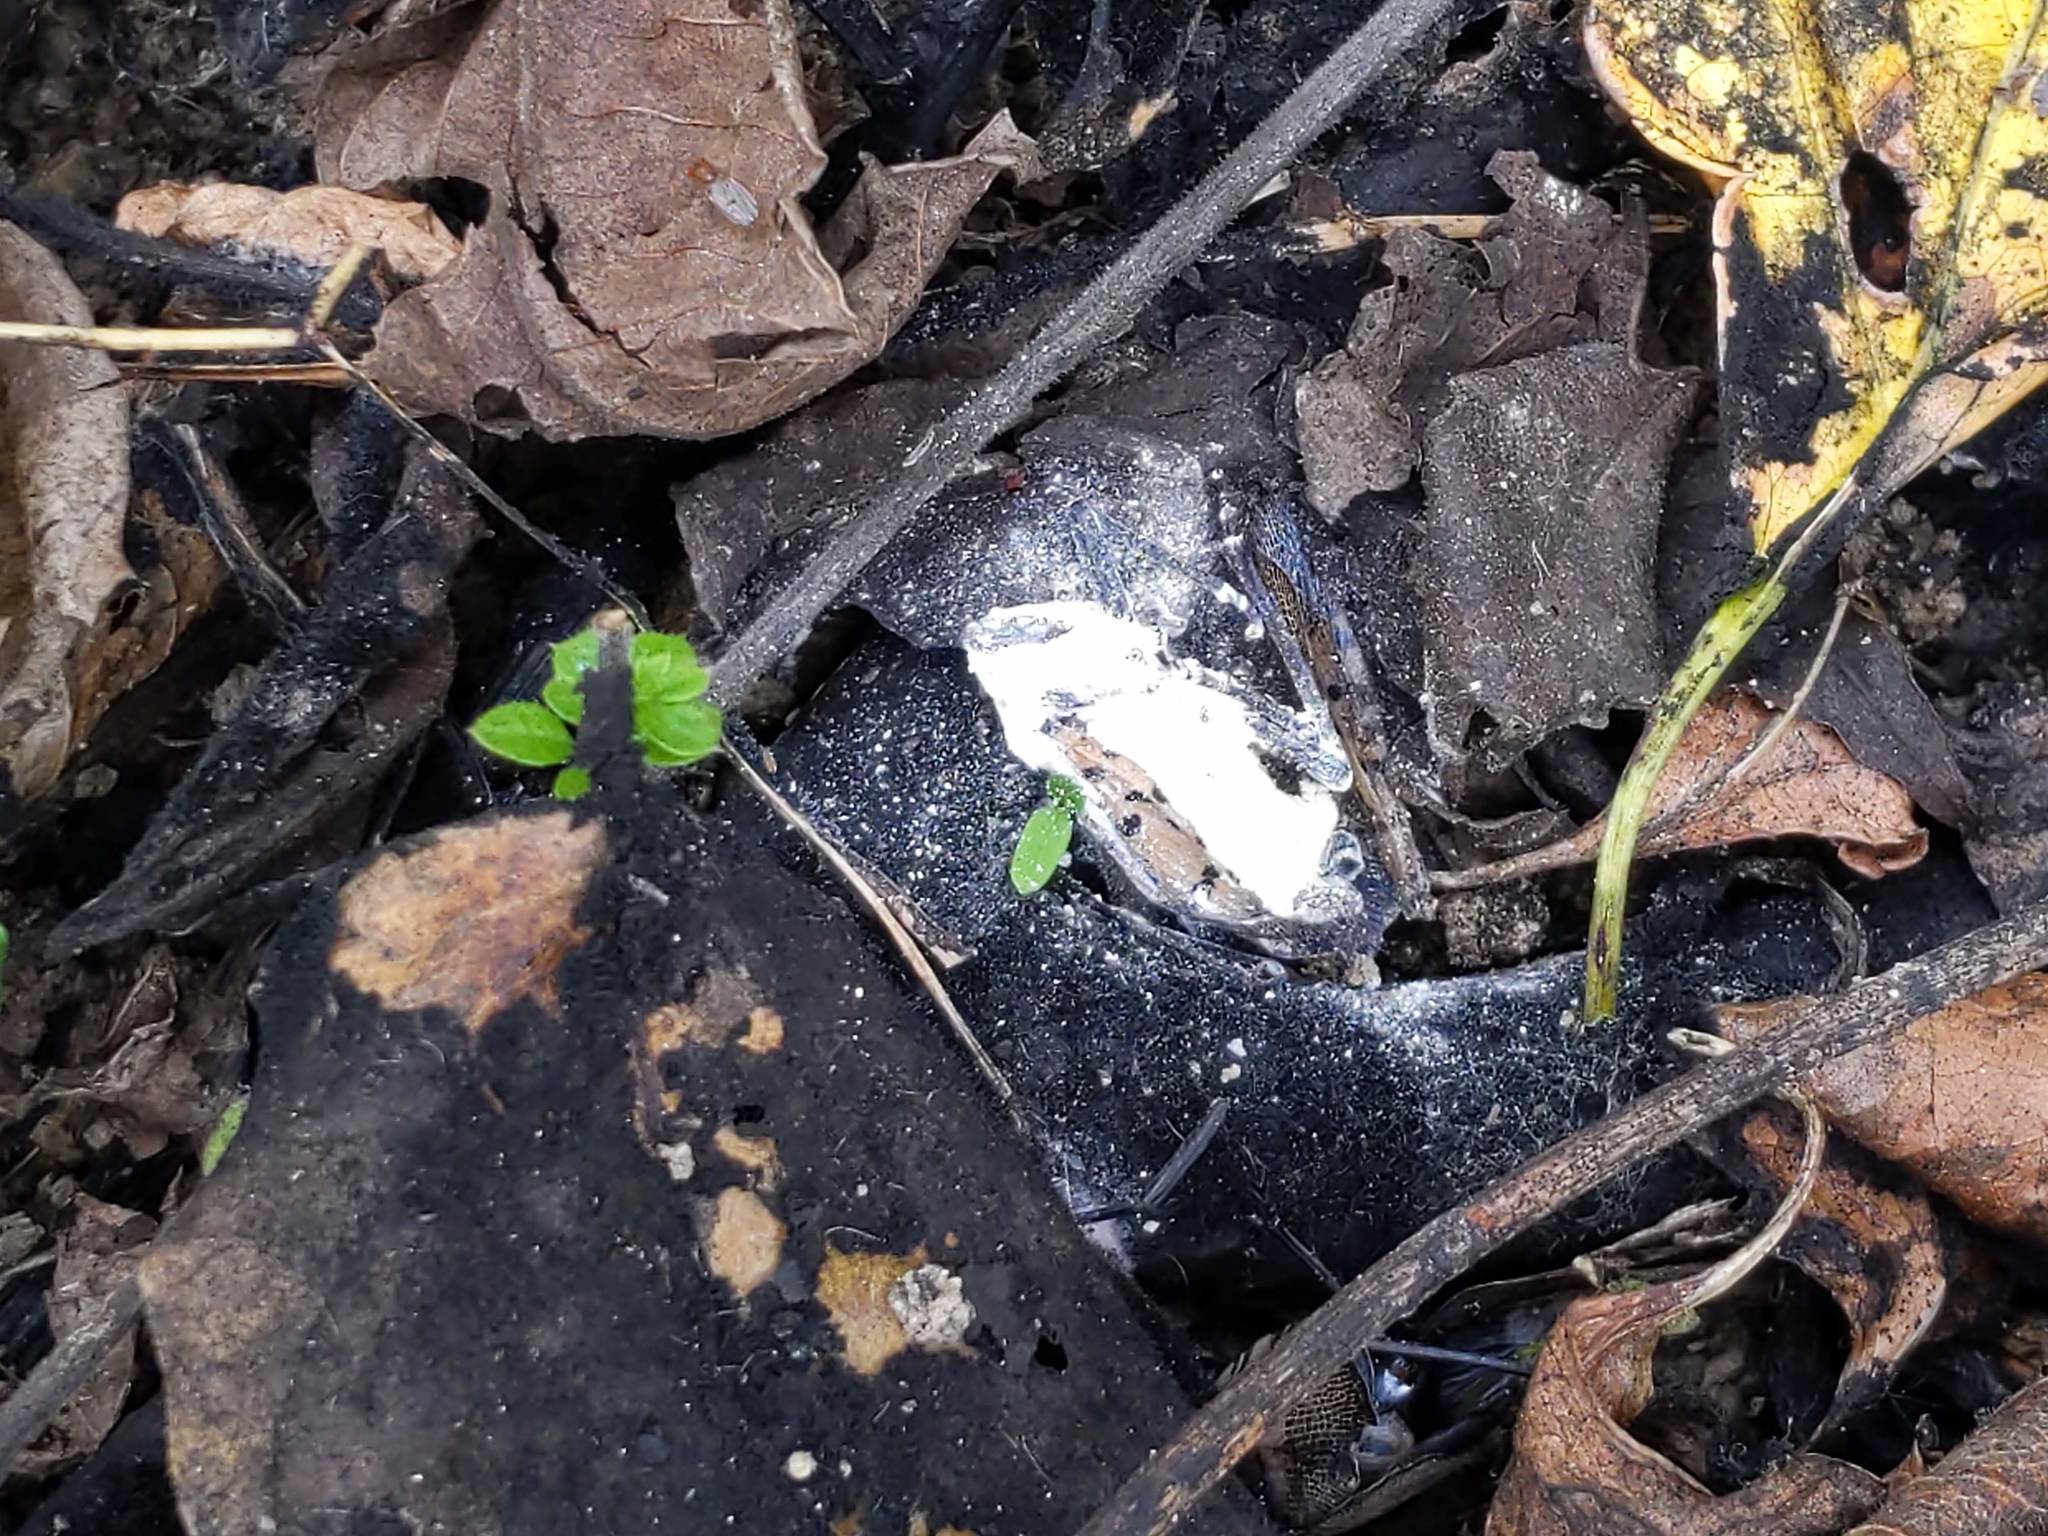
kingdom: Fungi
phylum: Ascomycota
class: Sordariomycetes
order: Hypocreales
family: Cordycipitaceae
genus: Beauveria
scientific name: Beauveria bassiana
